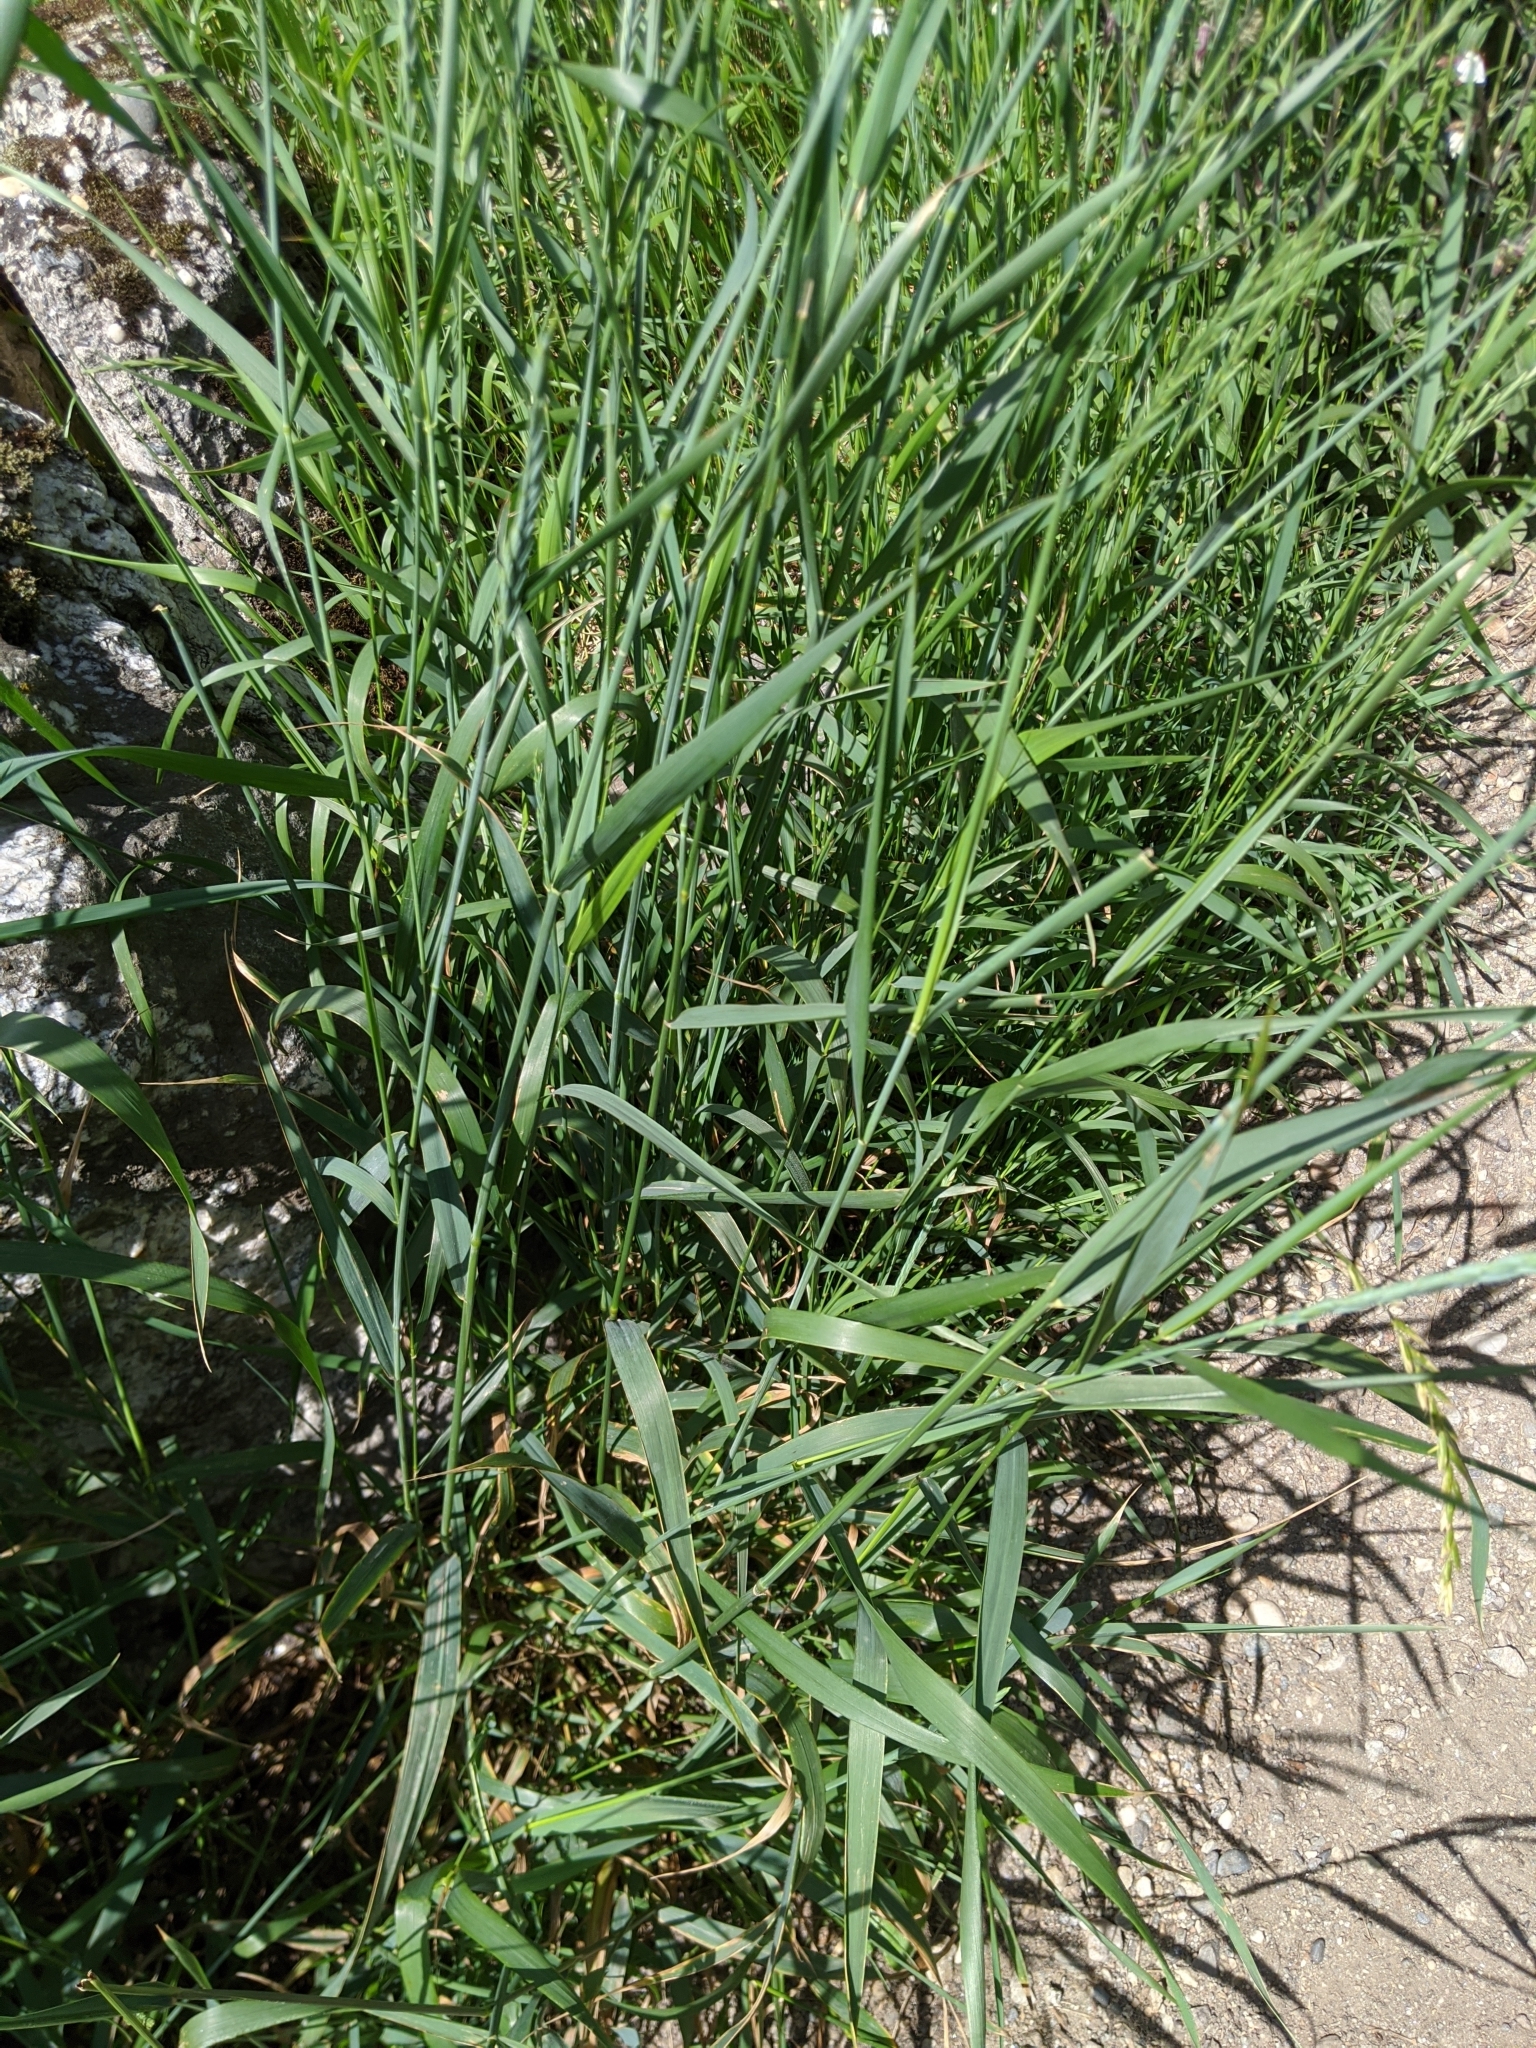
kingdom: Plantae
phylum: Tracheophyta
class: Liliopsida
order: Poales
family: Poaceae
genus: Elymus
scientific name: Elymus repens
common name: Quackgrass
